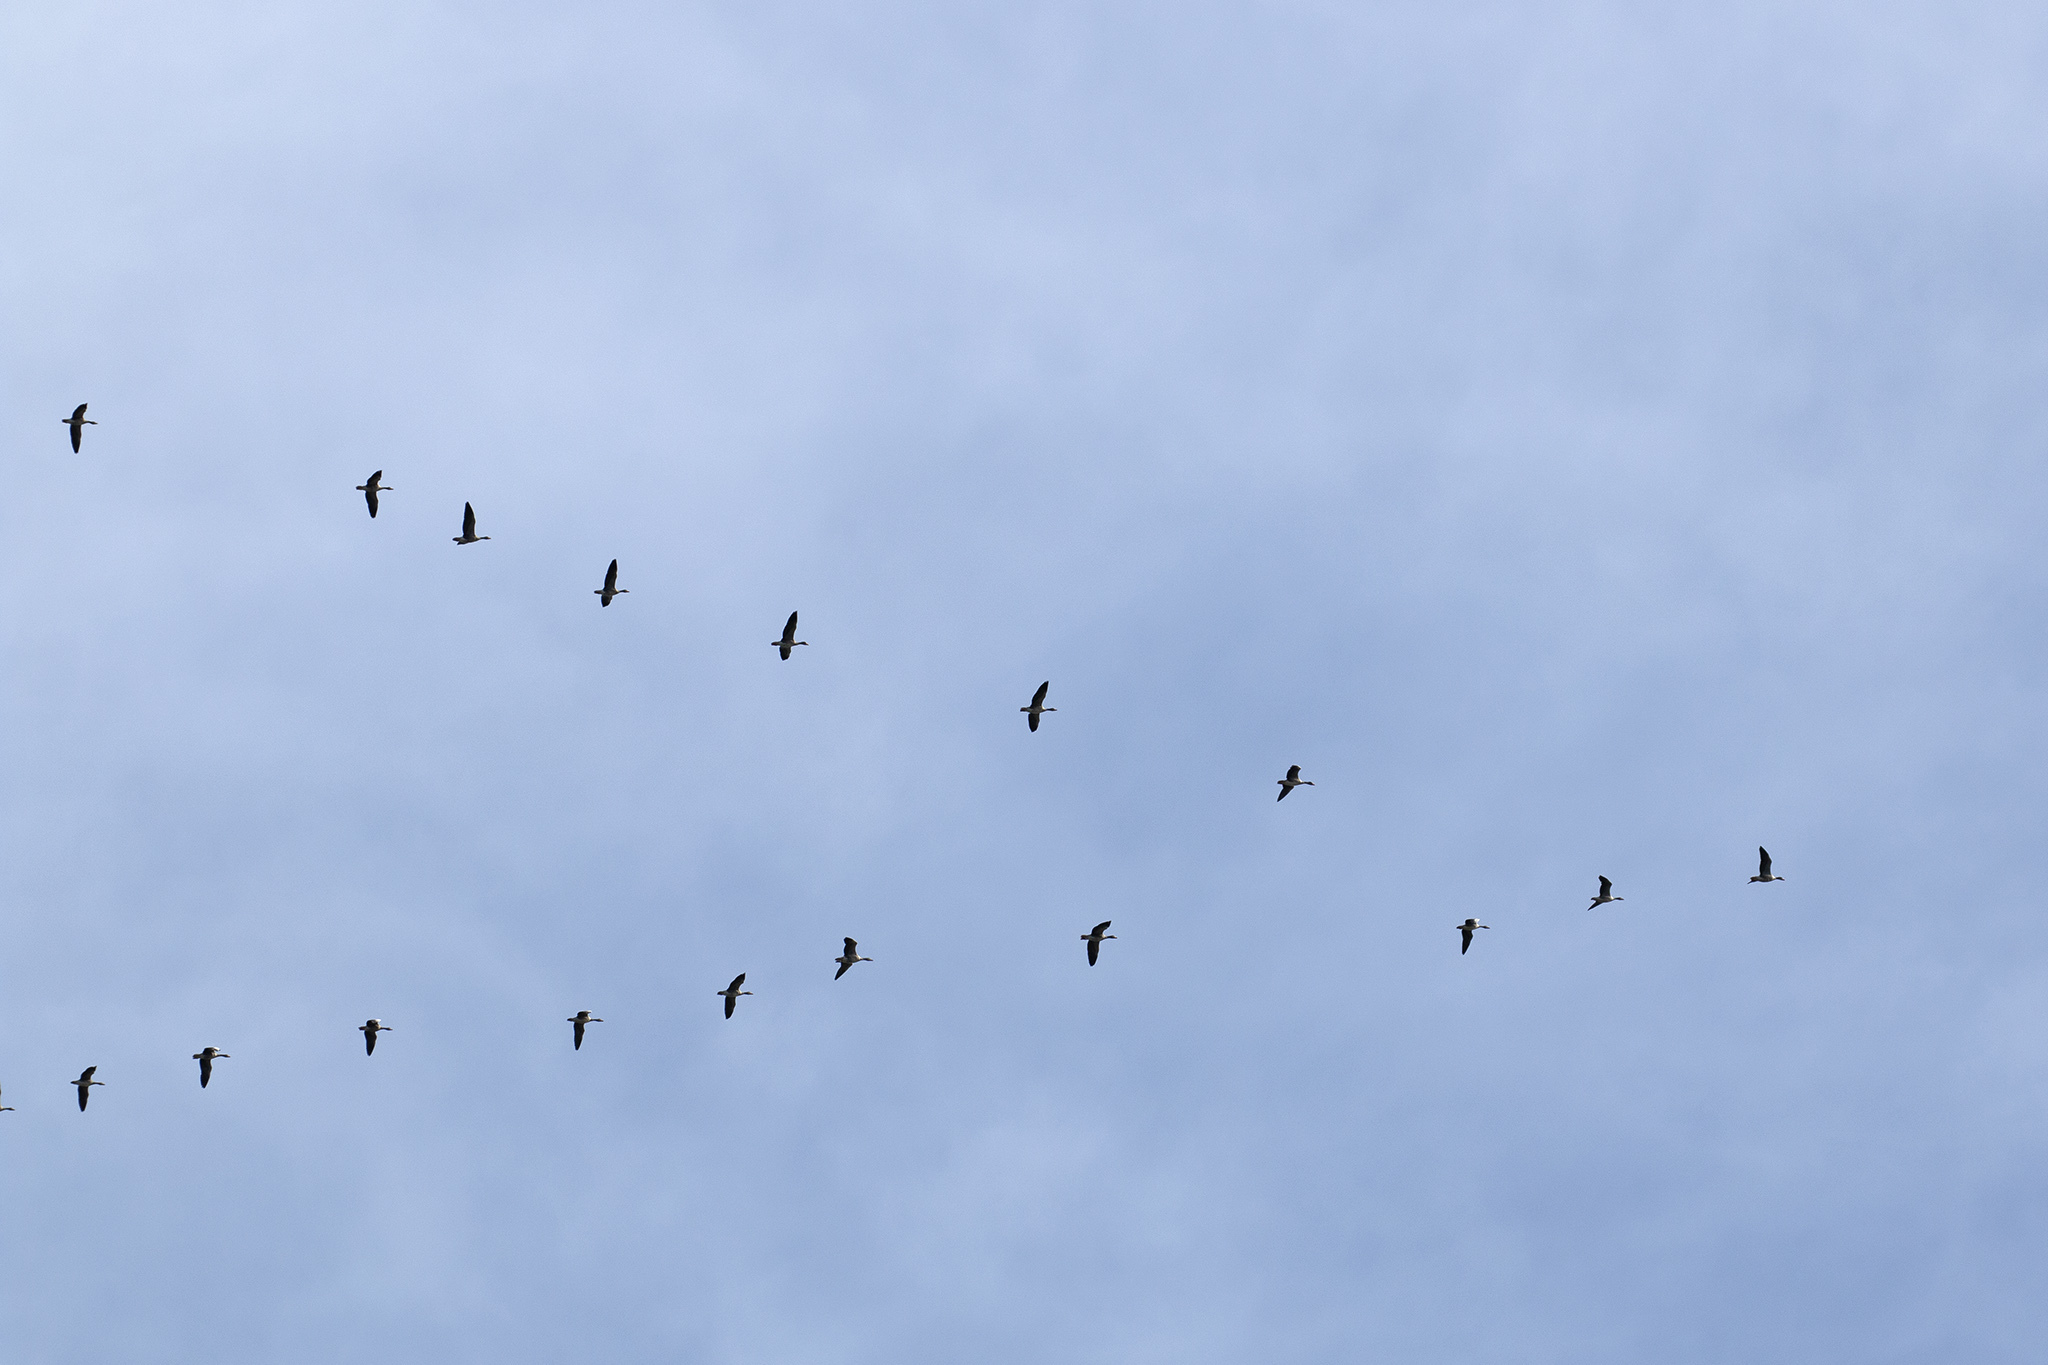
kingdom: Animalia
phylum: Chordata
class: Aves
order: Anseriformes
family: Anatidae
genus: Anser
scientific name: Anser anser
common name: Greylag goose
